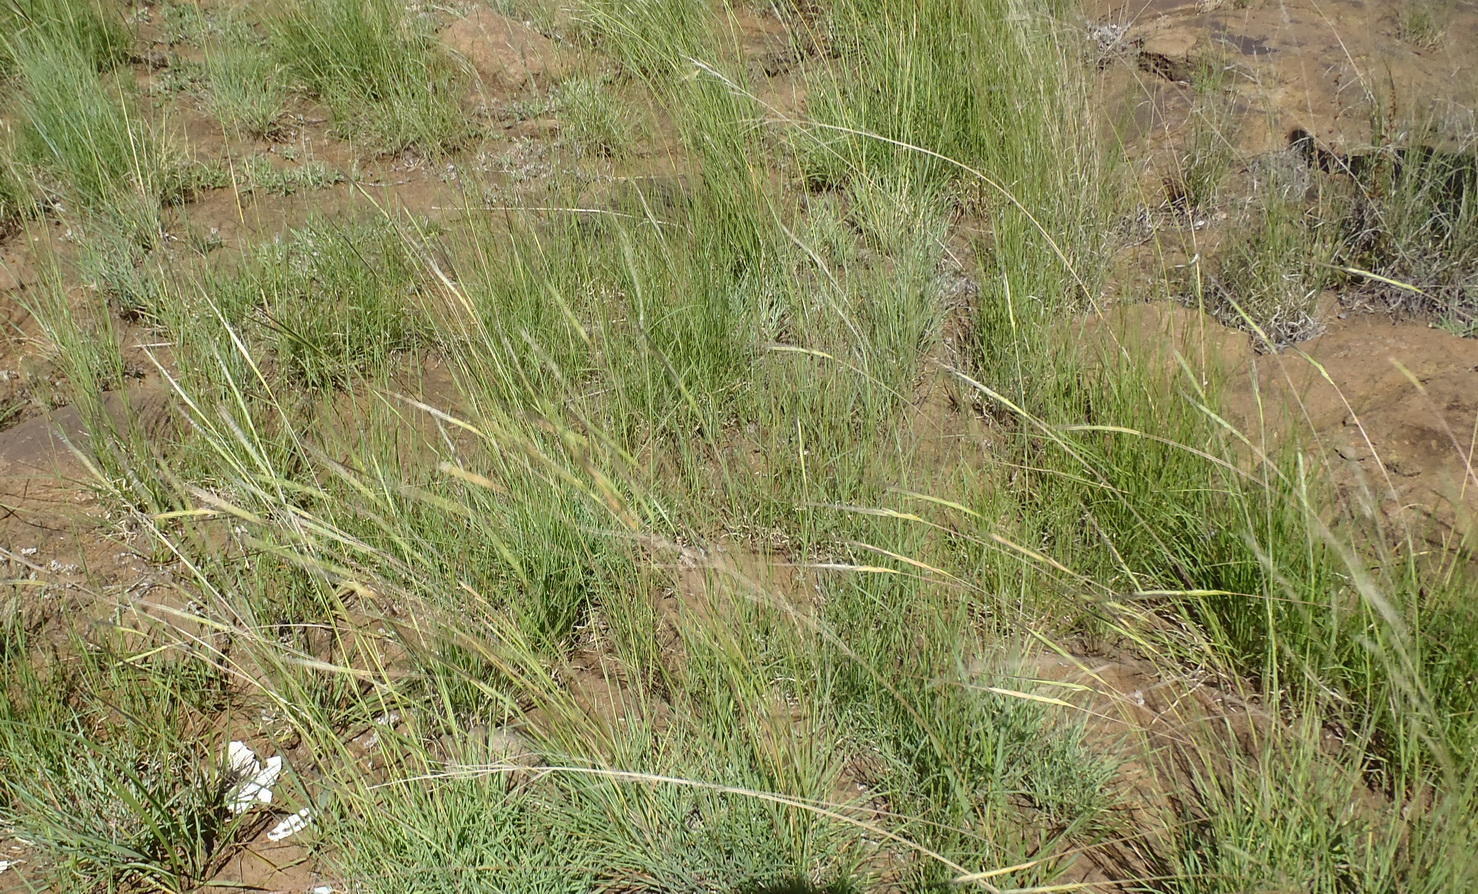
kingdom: Plantae
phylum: Tracheophyta
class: Liliopsida
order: Poales
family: Poaceae
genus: Heteropogon
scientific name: Heteropogon contortus
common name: Tanglehead
